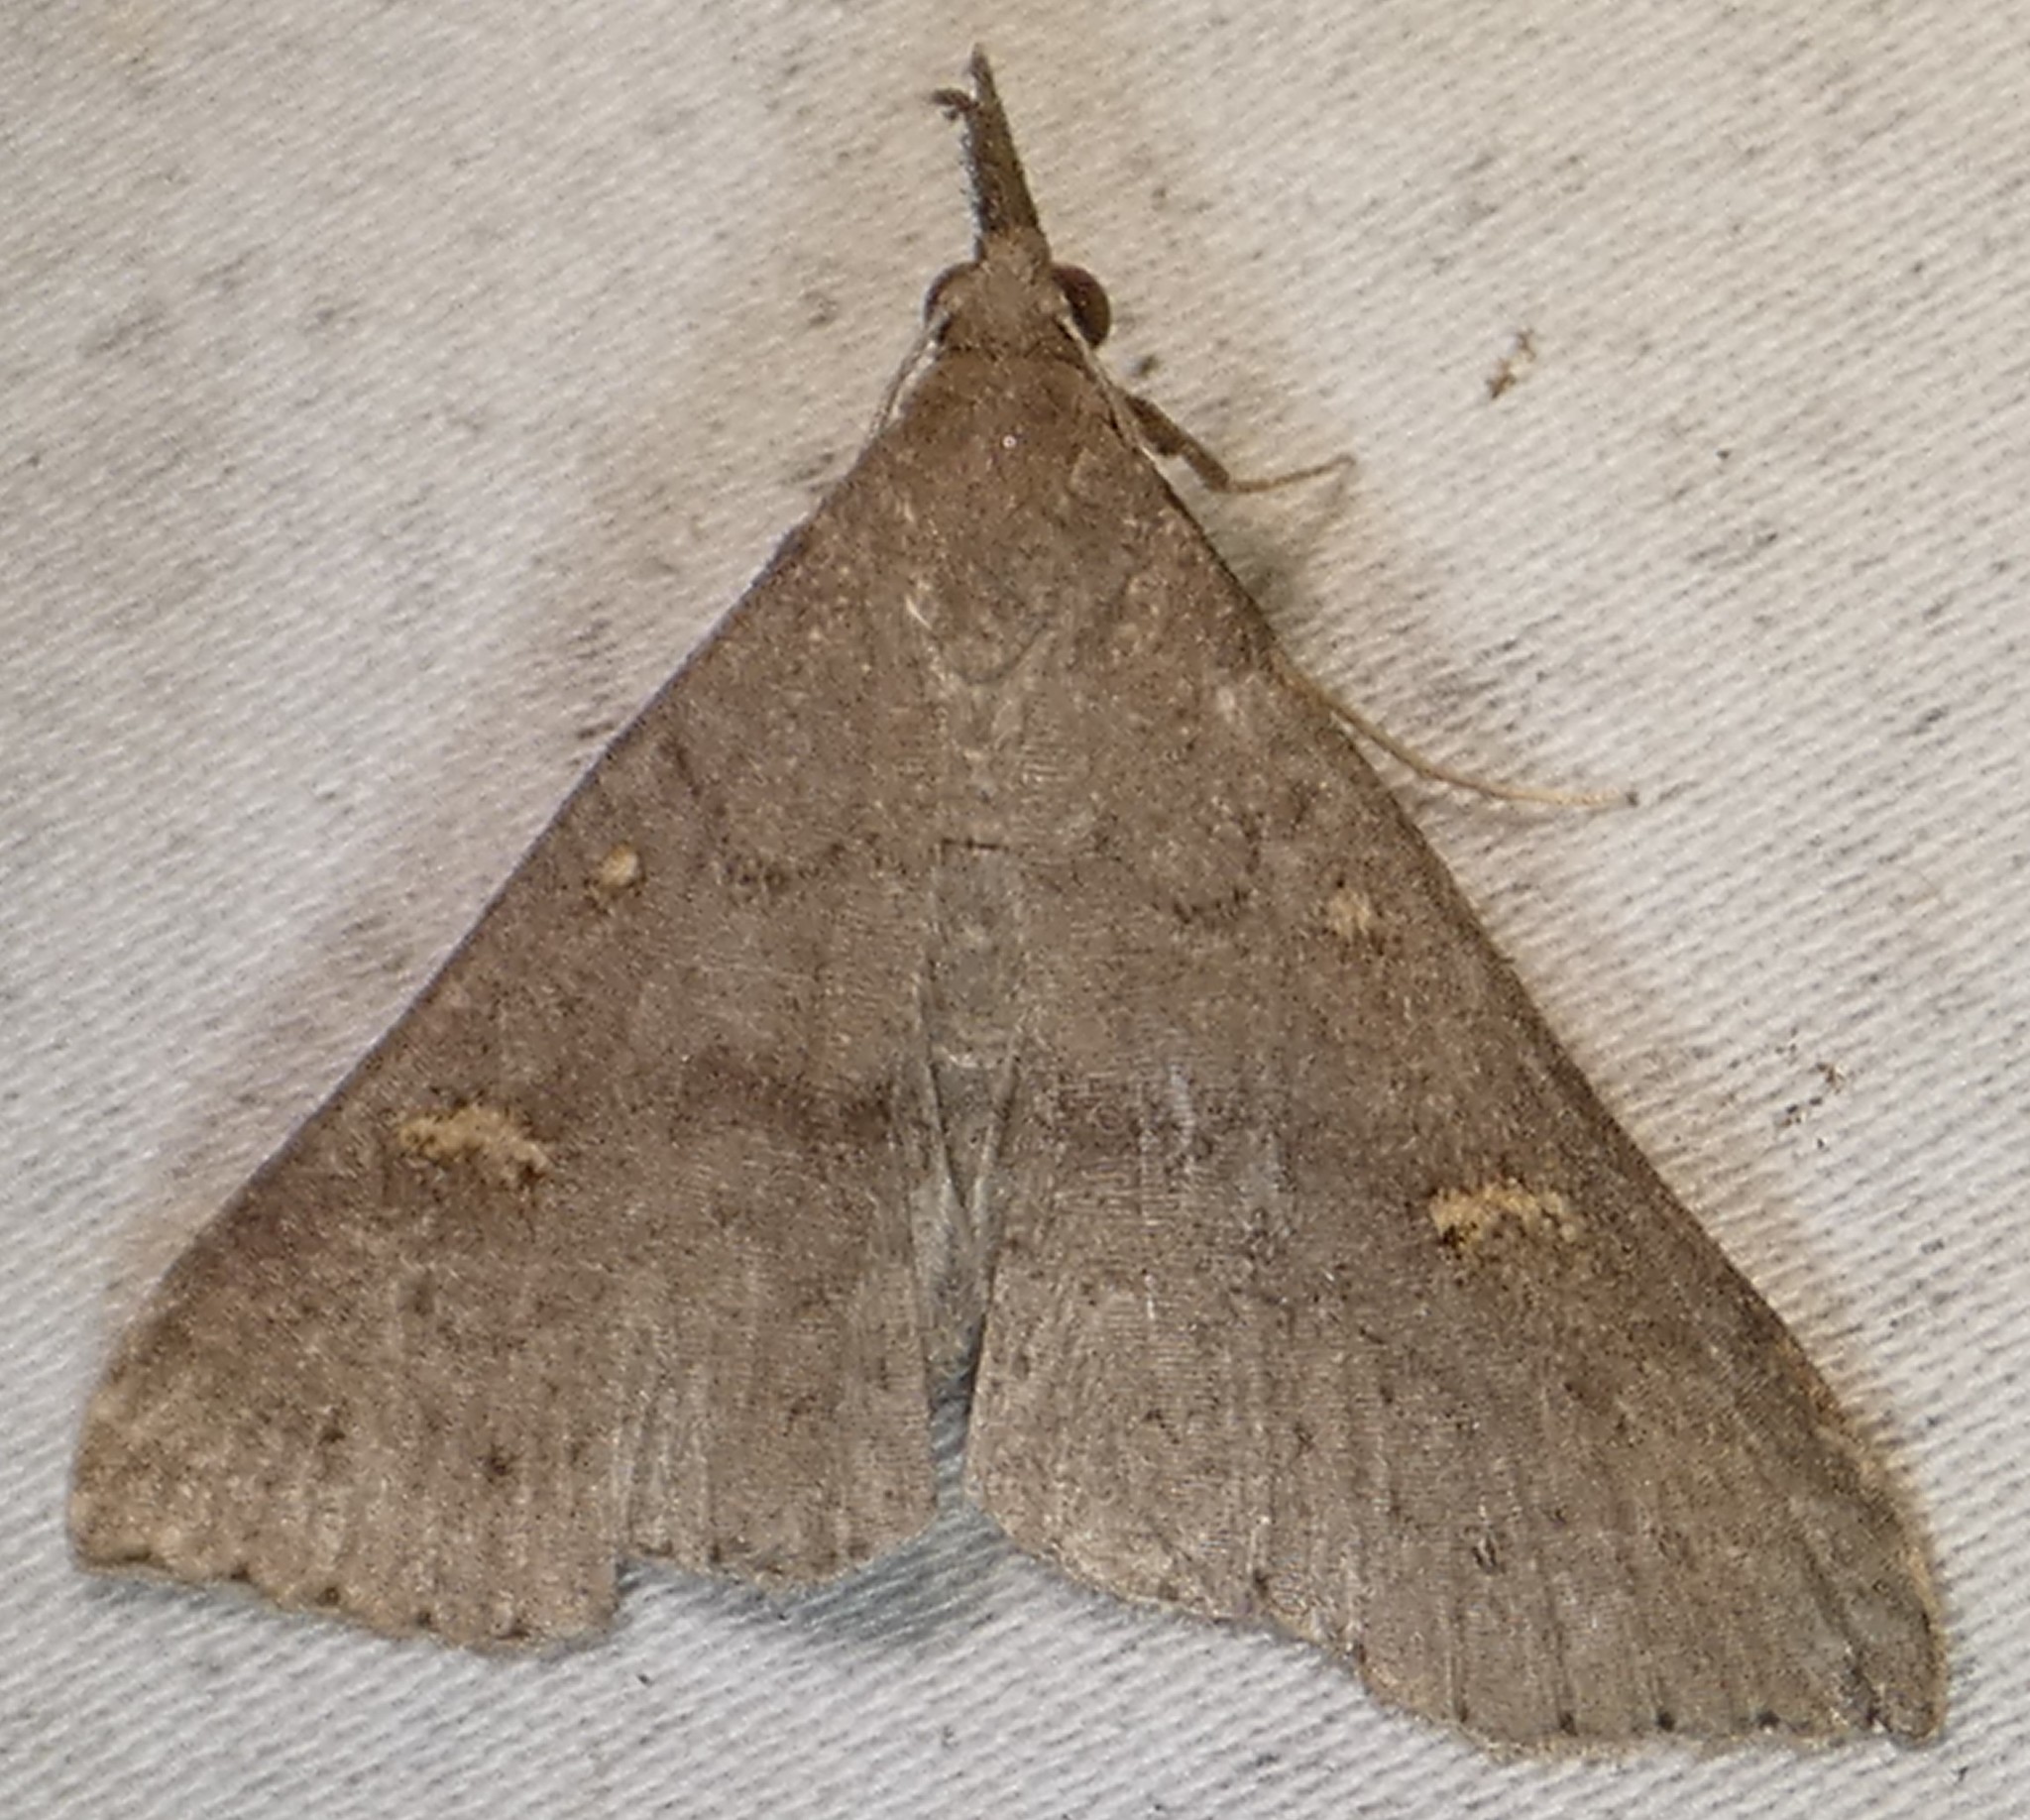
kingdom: Animalia
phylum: Arthropoda
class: Insecta
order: Lepidoptera
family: Erebidae
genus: Renia
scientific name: Renia adspergillus
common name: Speckled renia moth
